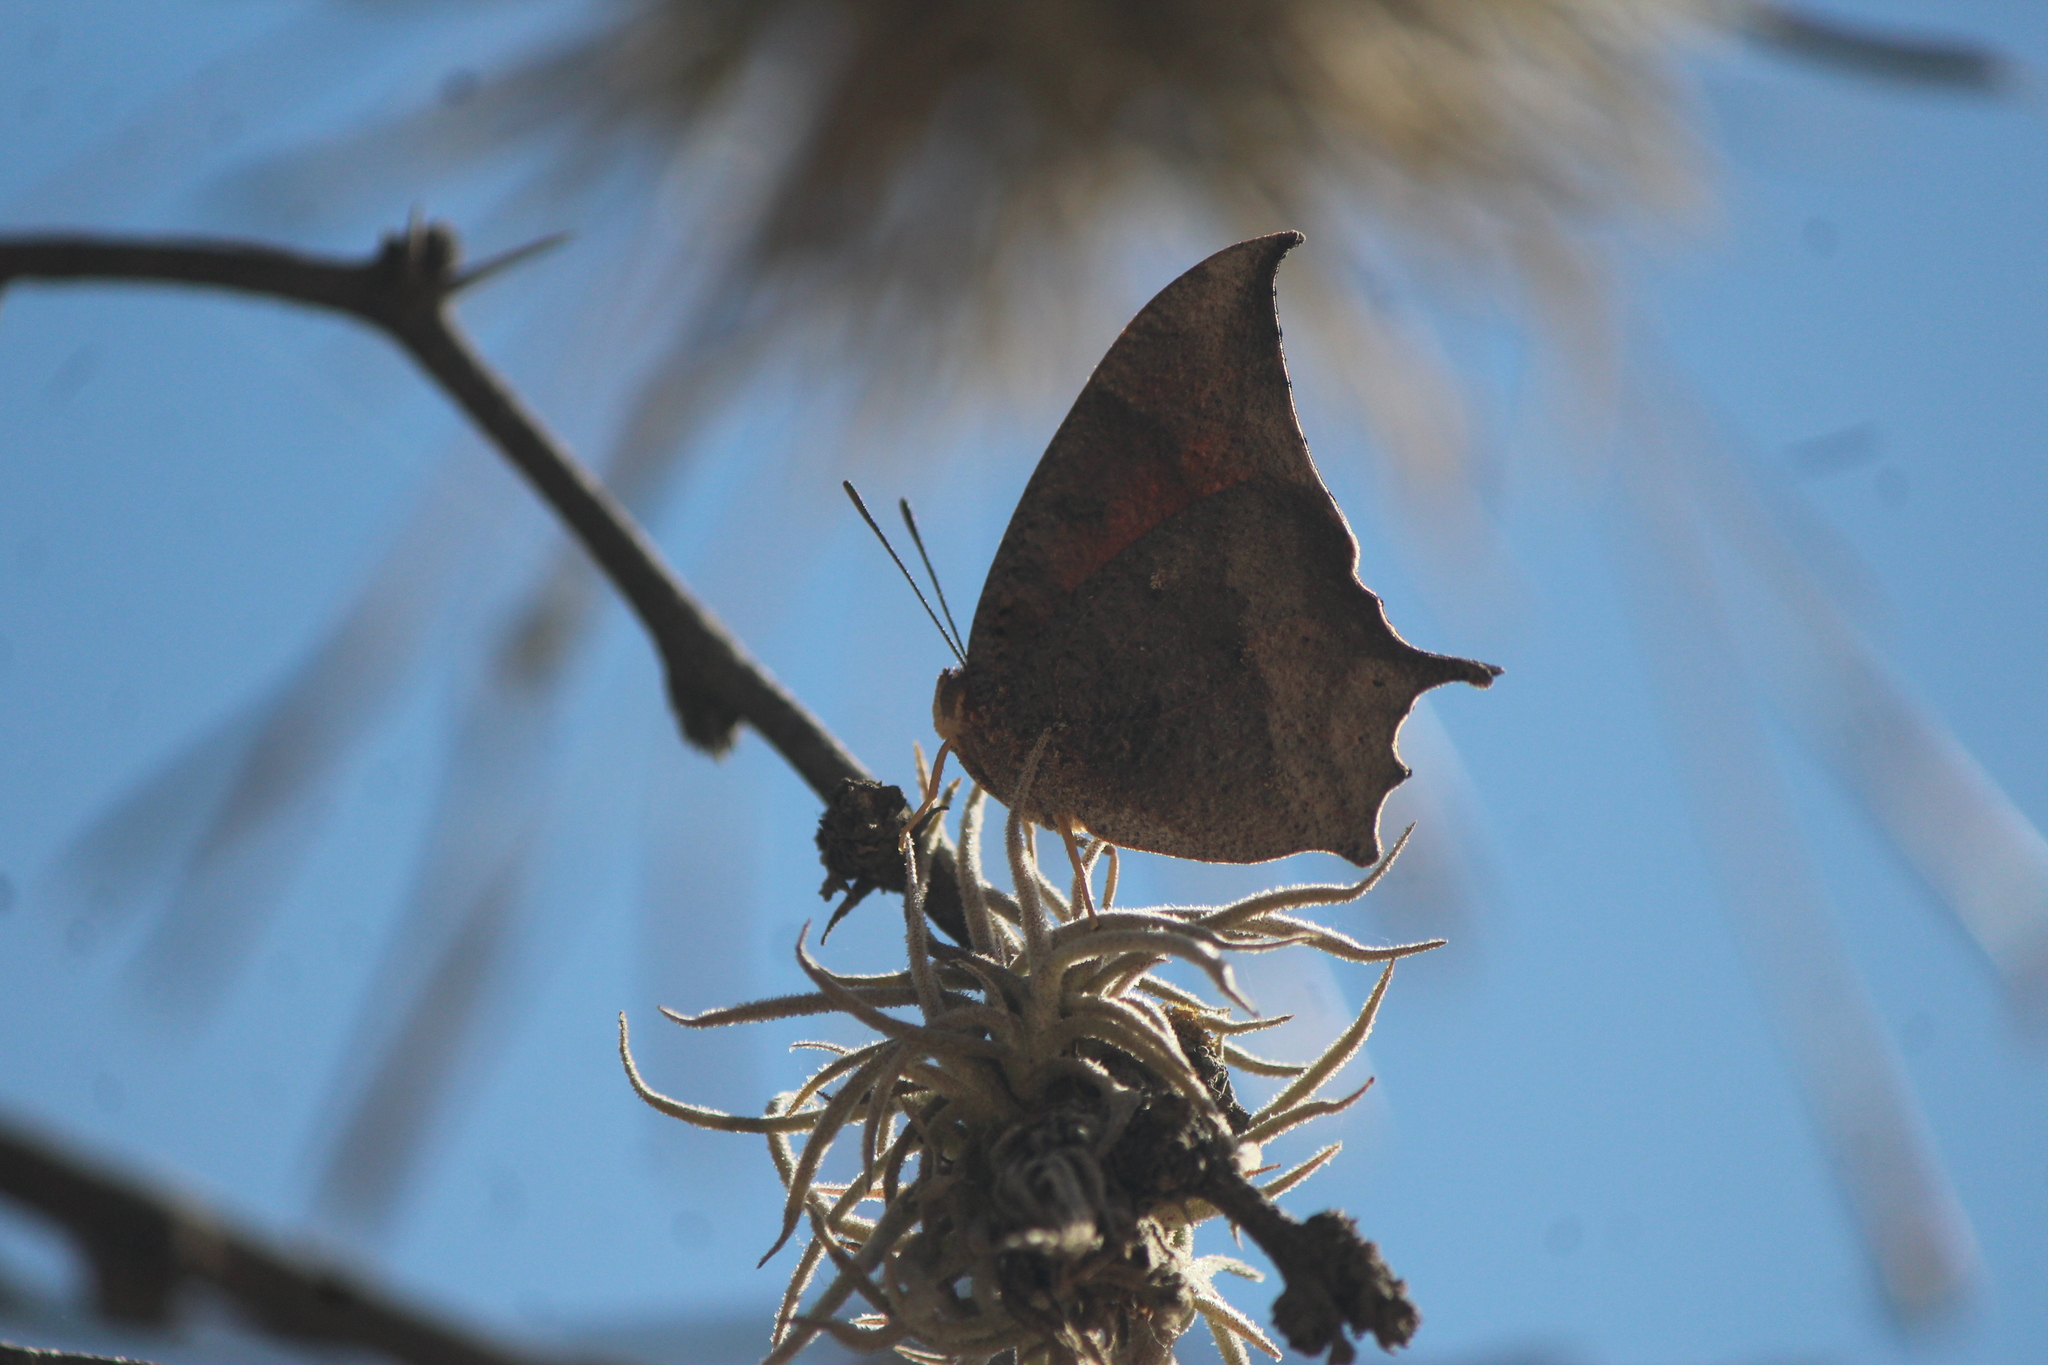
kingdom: Animalia
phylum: Arthropoda
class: Insecta
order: Lepidoptera
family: Nymphalidae
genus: Anaea
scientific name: Anaea aidea
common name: Tropical leafwing
